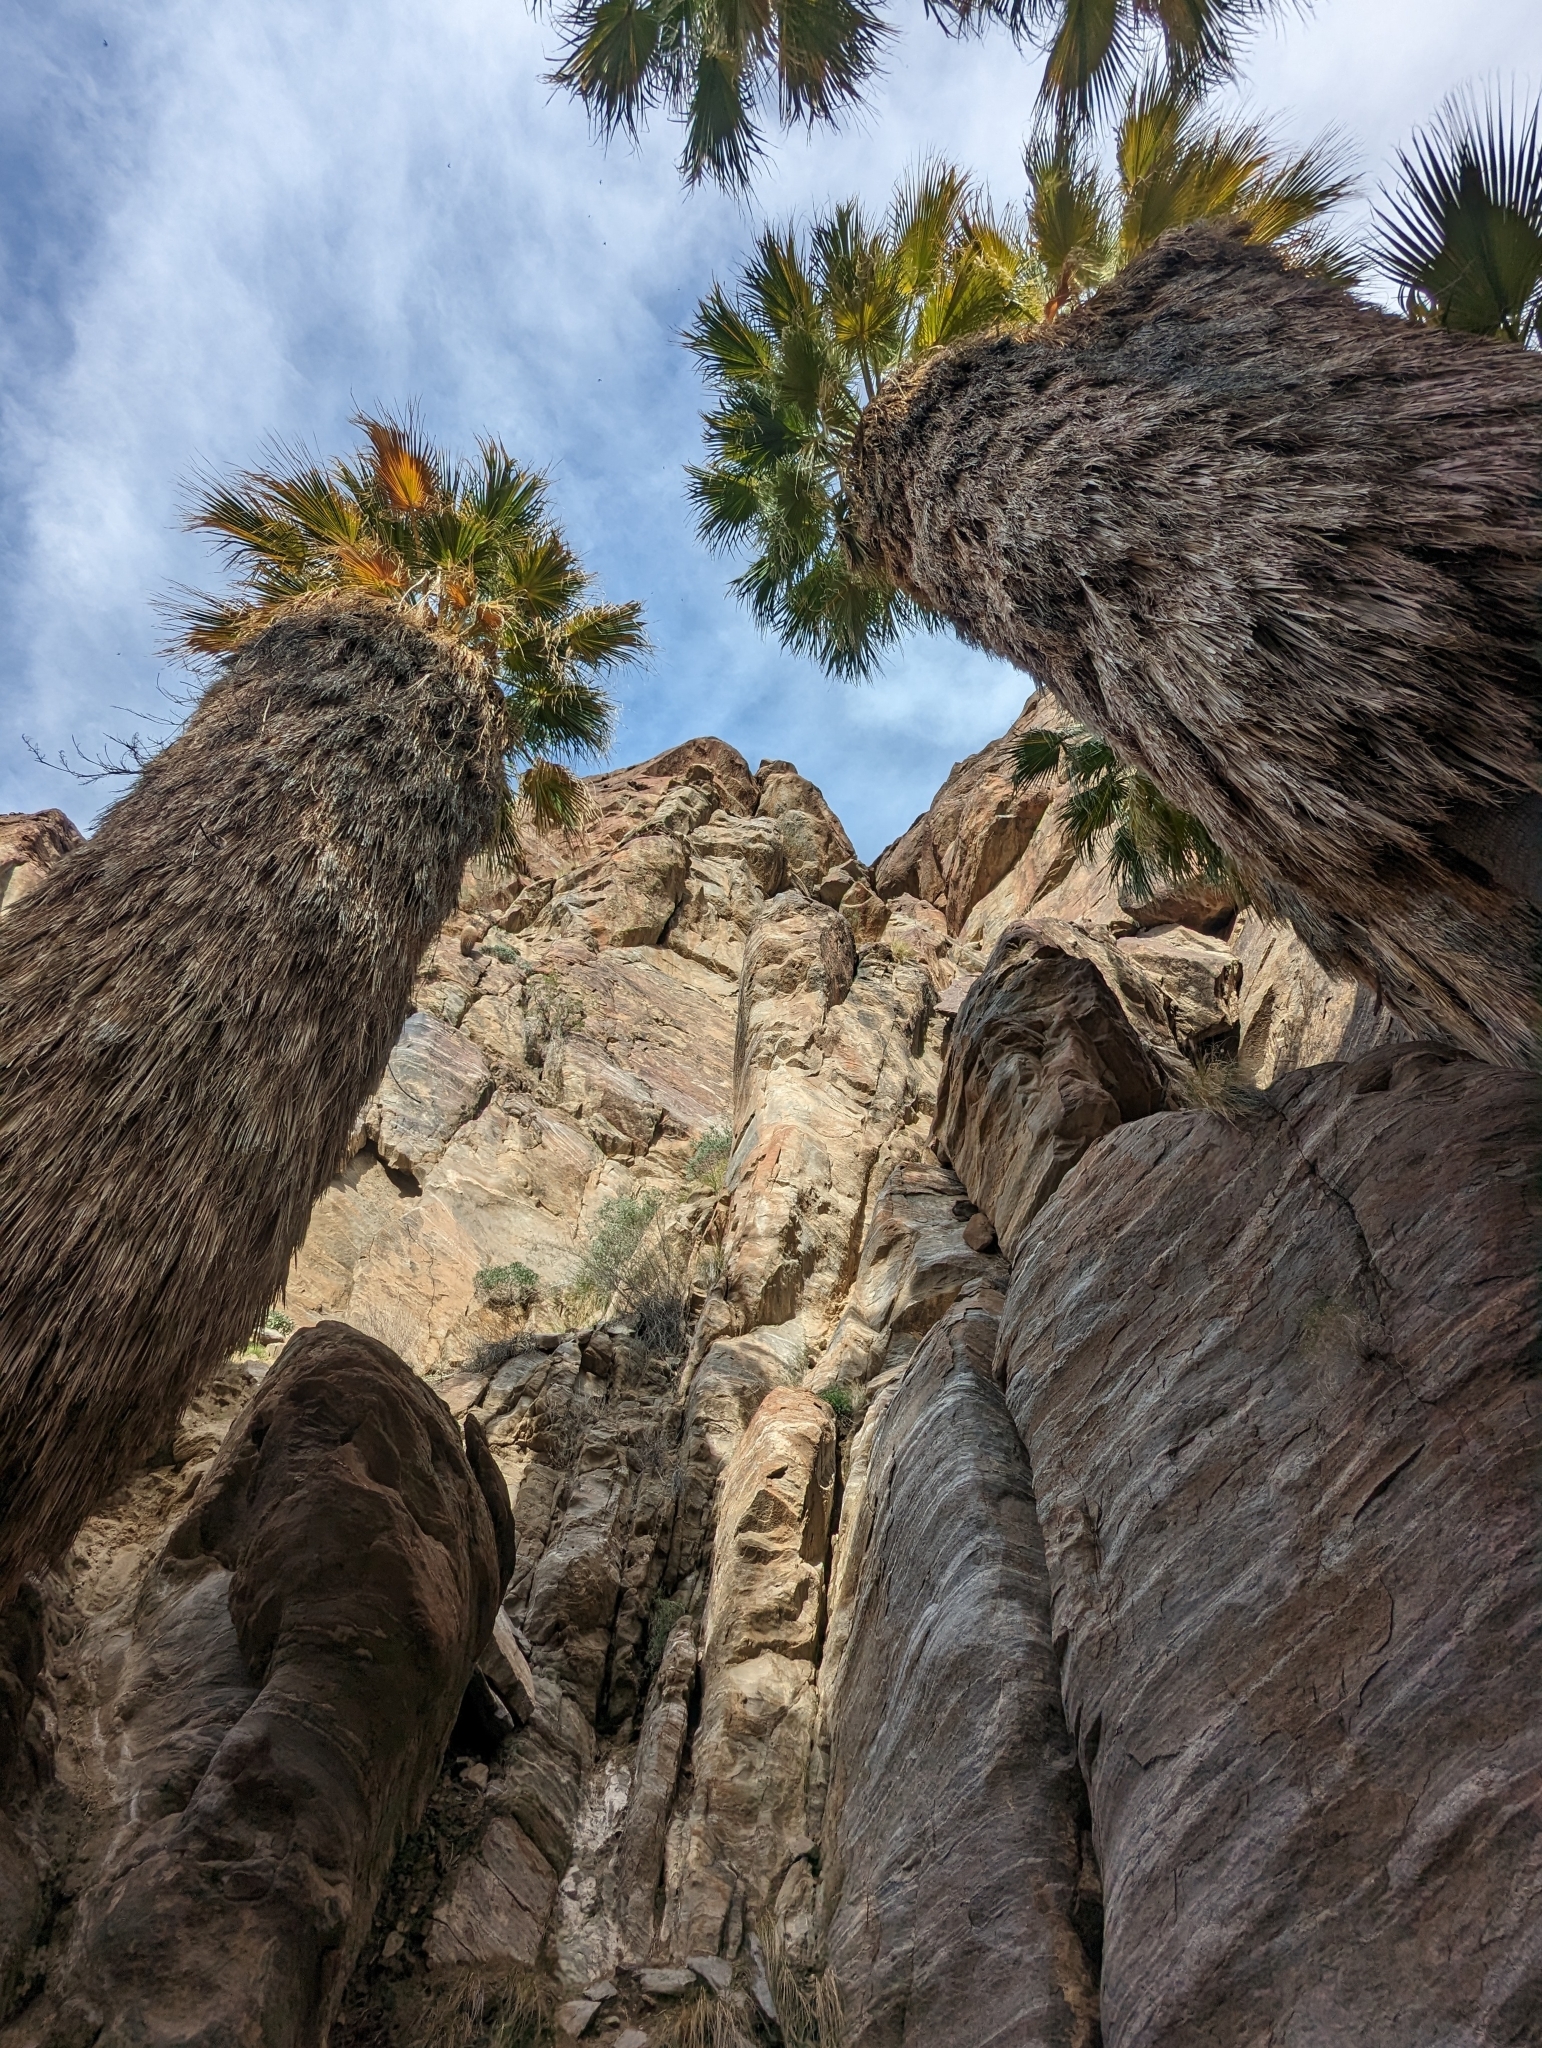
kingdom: Plantae
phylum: Tracheophyta
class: Liliopsida
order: Arecales
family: Arecaceae
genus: Washingtonia
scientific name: Washingtonia filifera
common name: California fan palm
